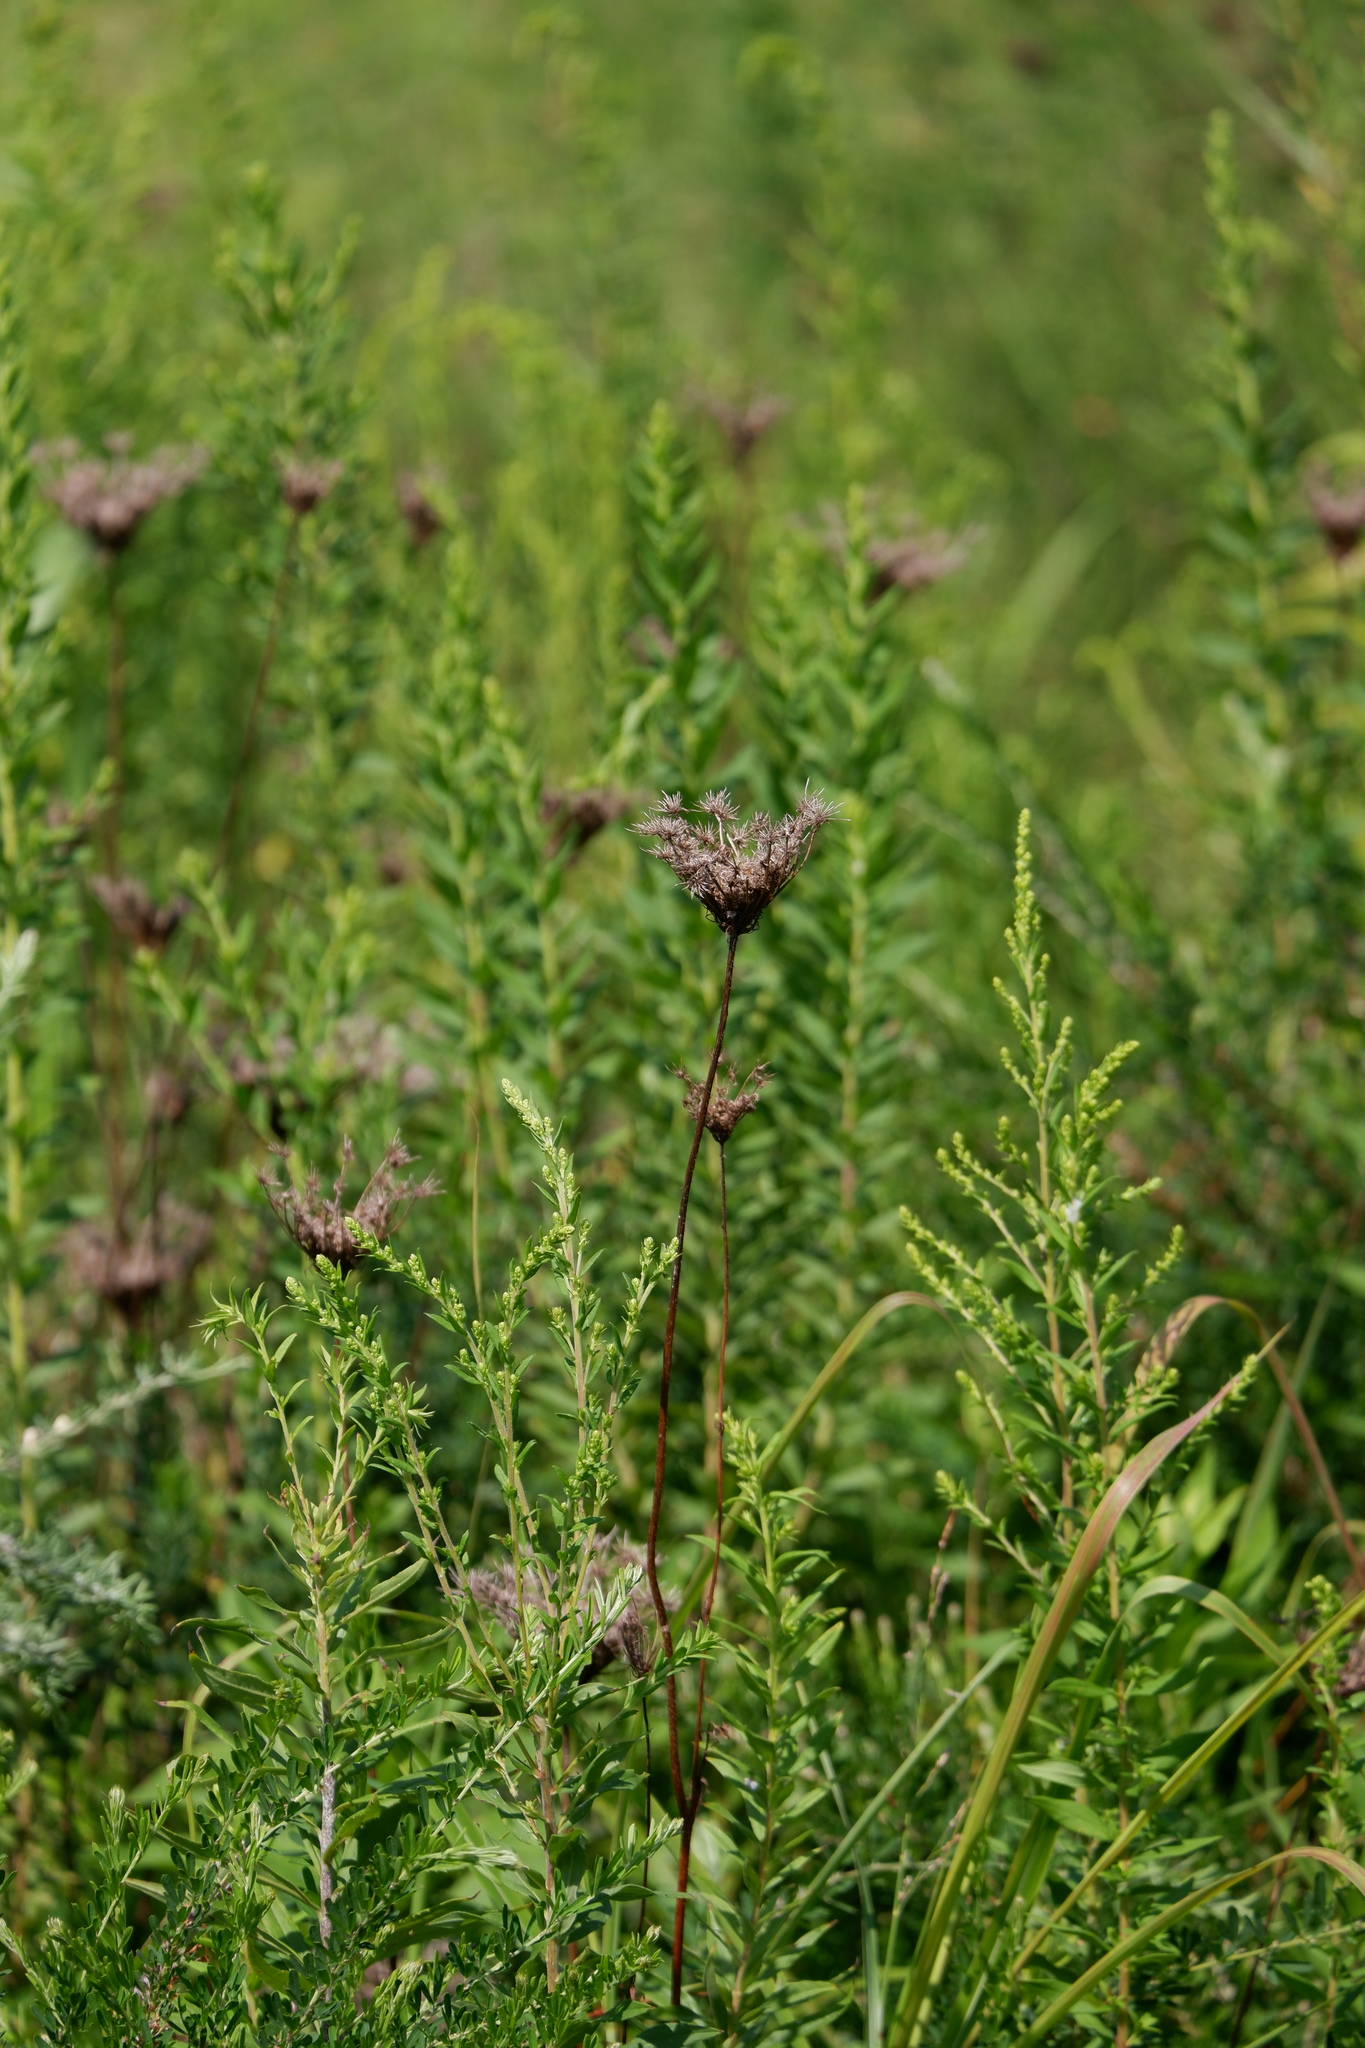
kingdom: Plantae
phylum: Tracheophyta
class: Magnoliopsida
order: Apiales
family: Apiaceae
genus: Daucus
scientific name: Daucus carota
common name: Wild carrot
